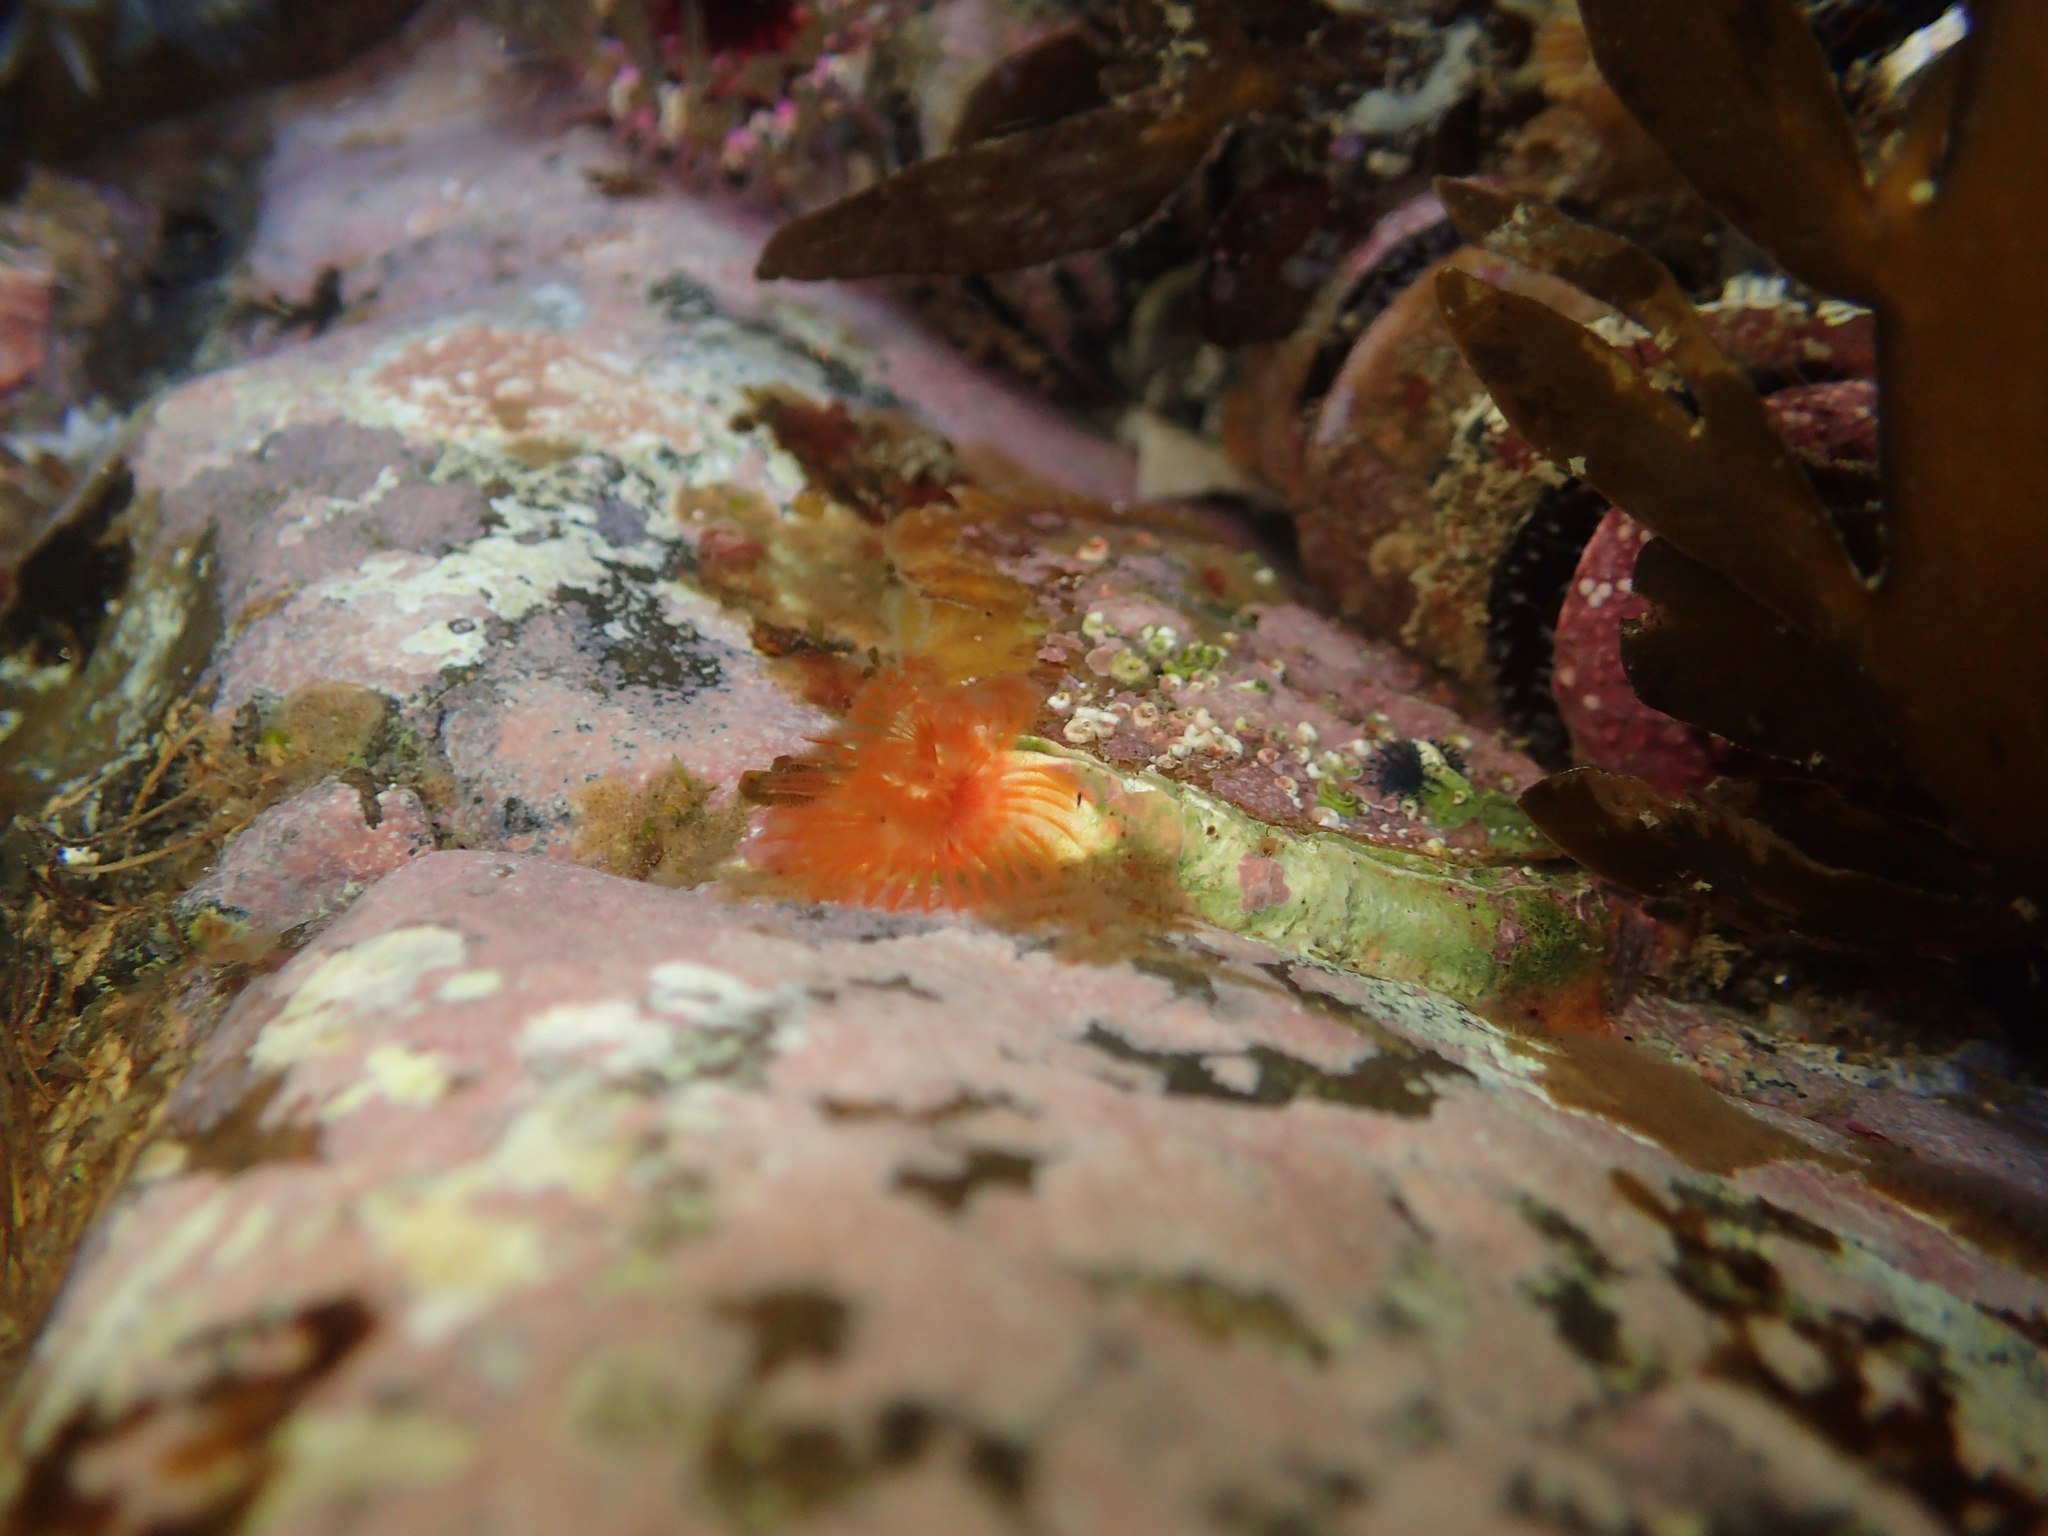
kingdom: Animalia
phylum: Annelida
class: Polychaeta
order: Sabellida
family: Serpulidae
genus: Galeolaria
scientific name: Galeolaria hystrix
